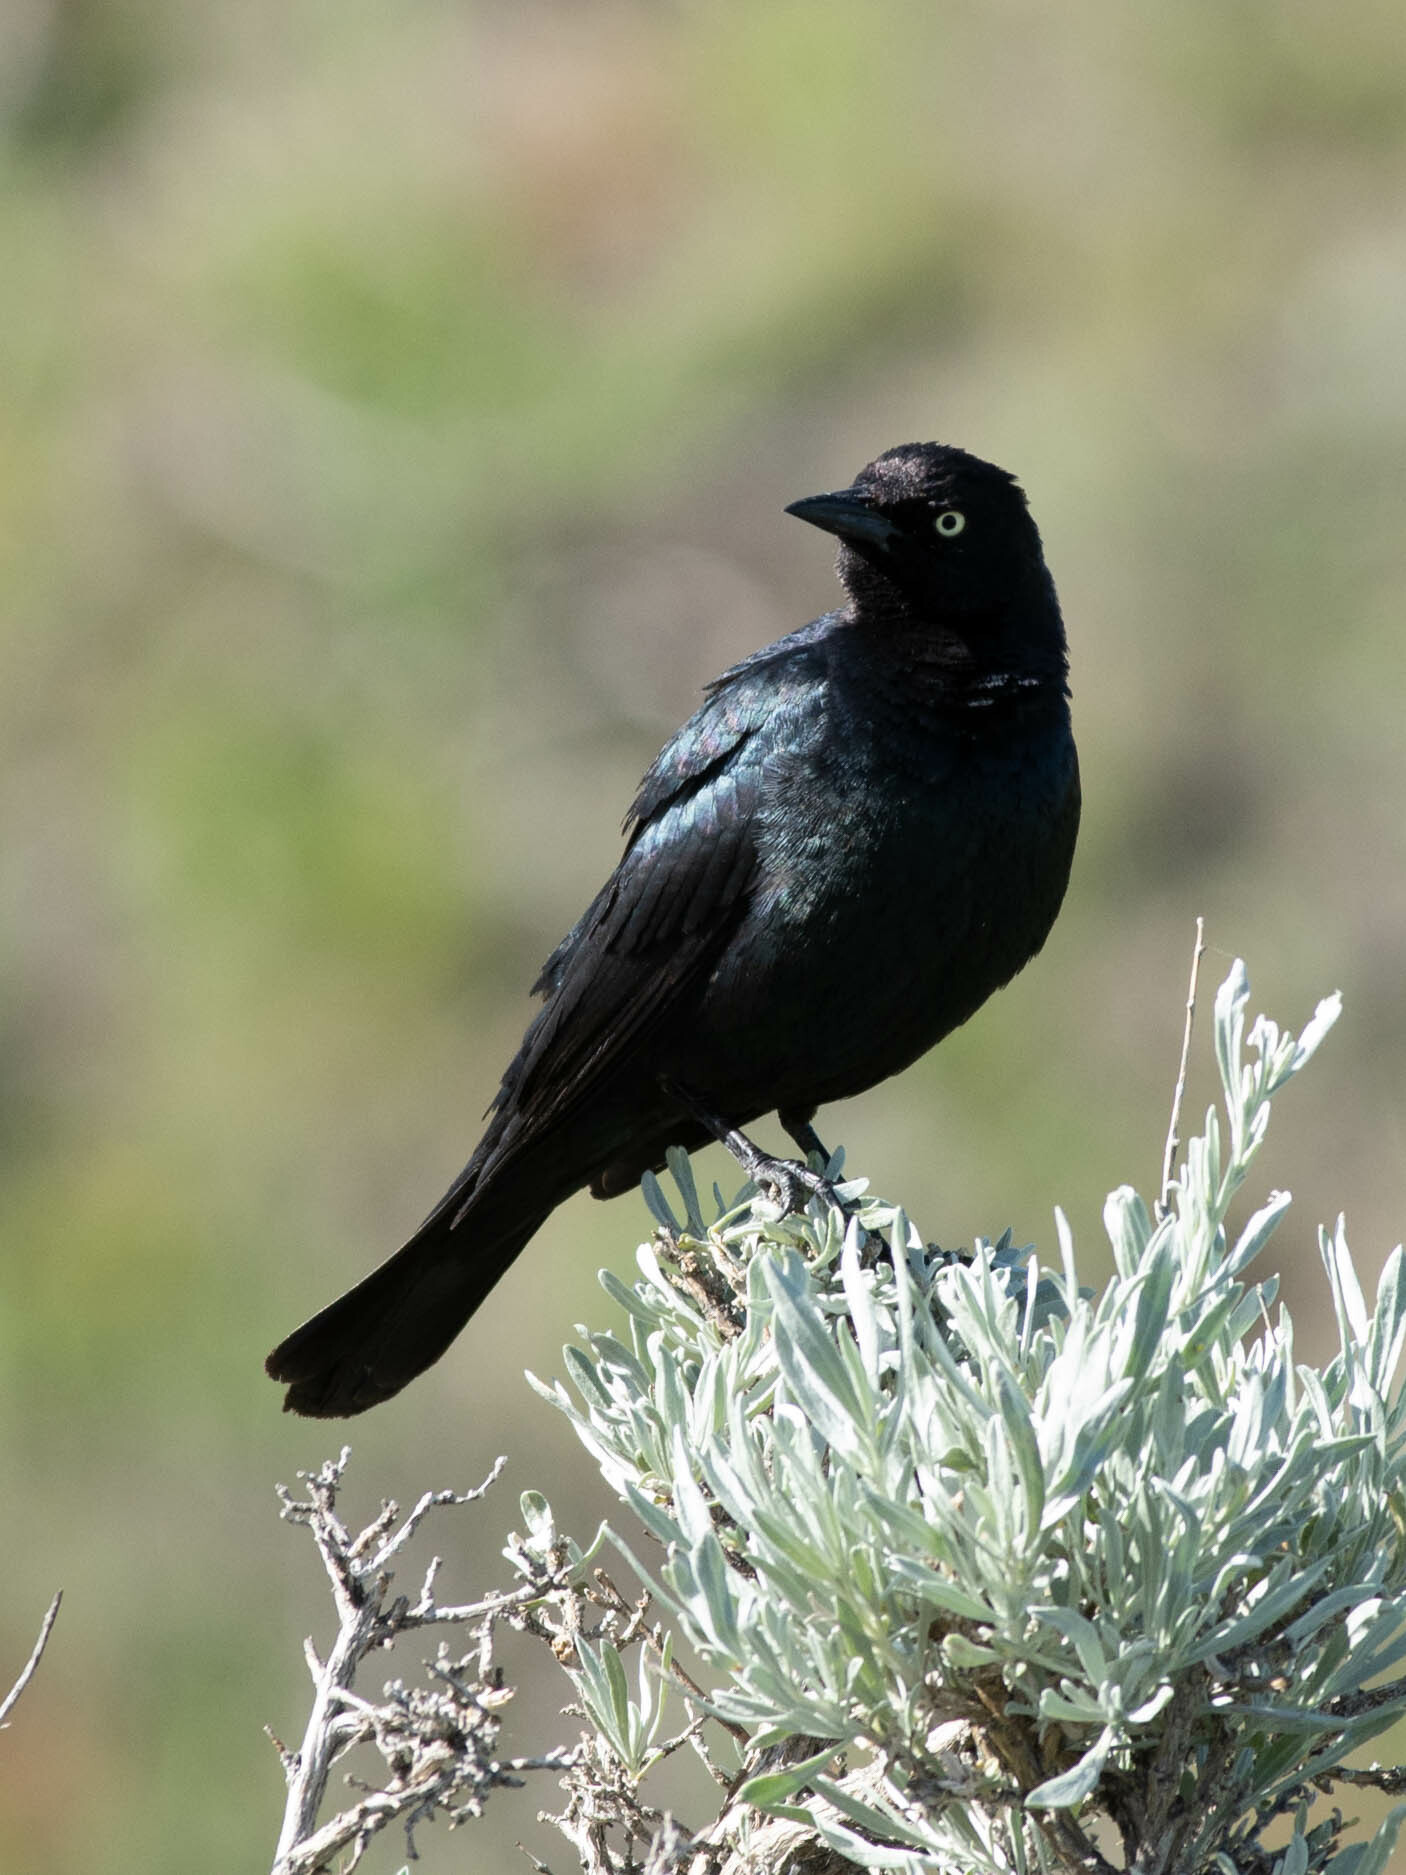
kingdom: Animalia
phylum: Chordata
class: Aves
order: Passeriformes
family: Icteridae
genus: Euphagus
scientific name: Euphagus cyanocephalus
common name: Brewer's blackbird
